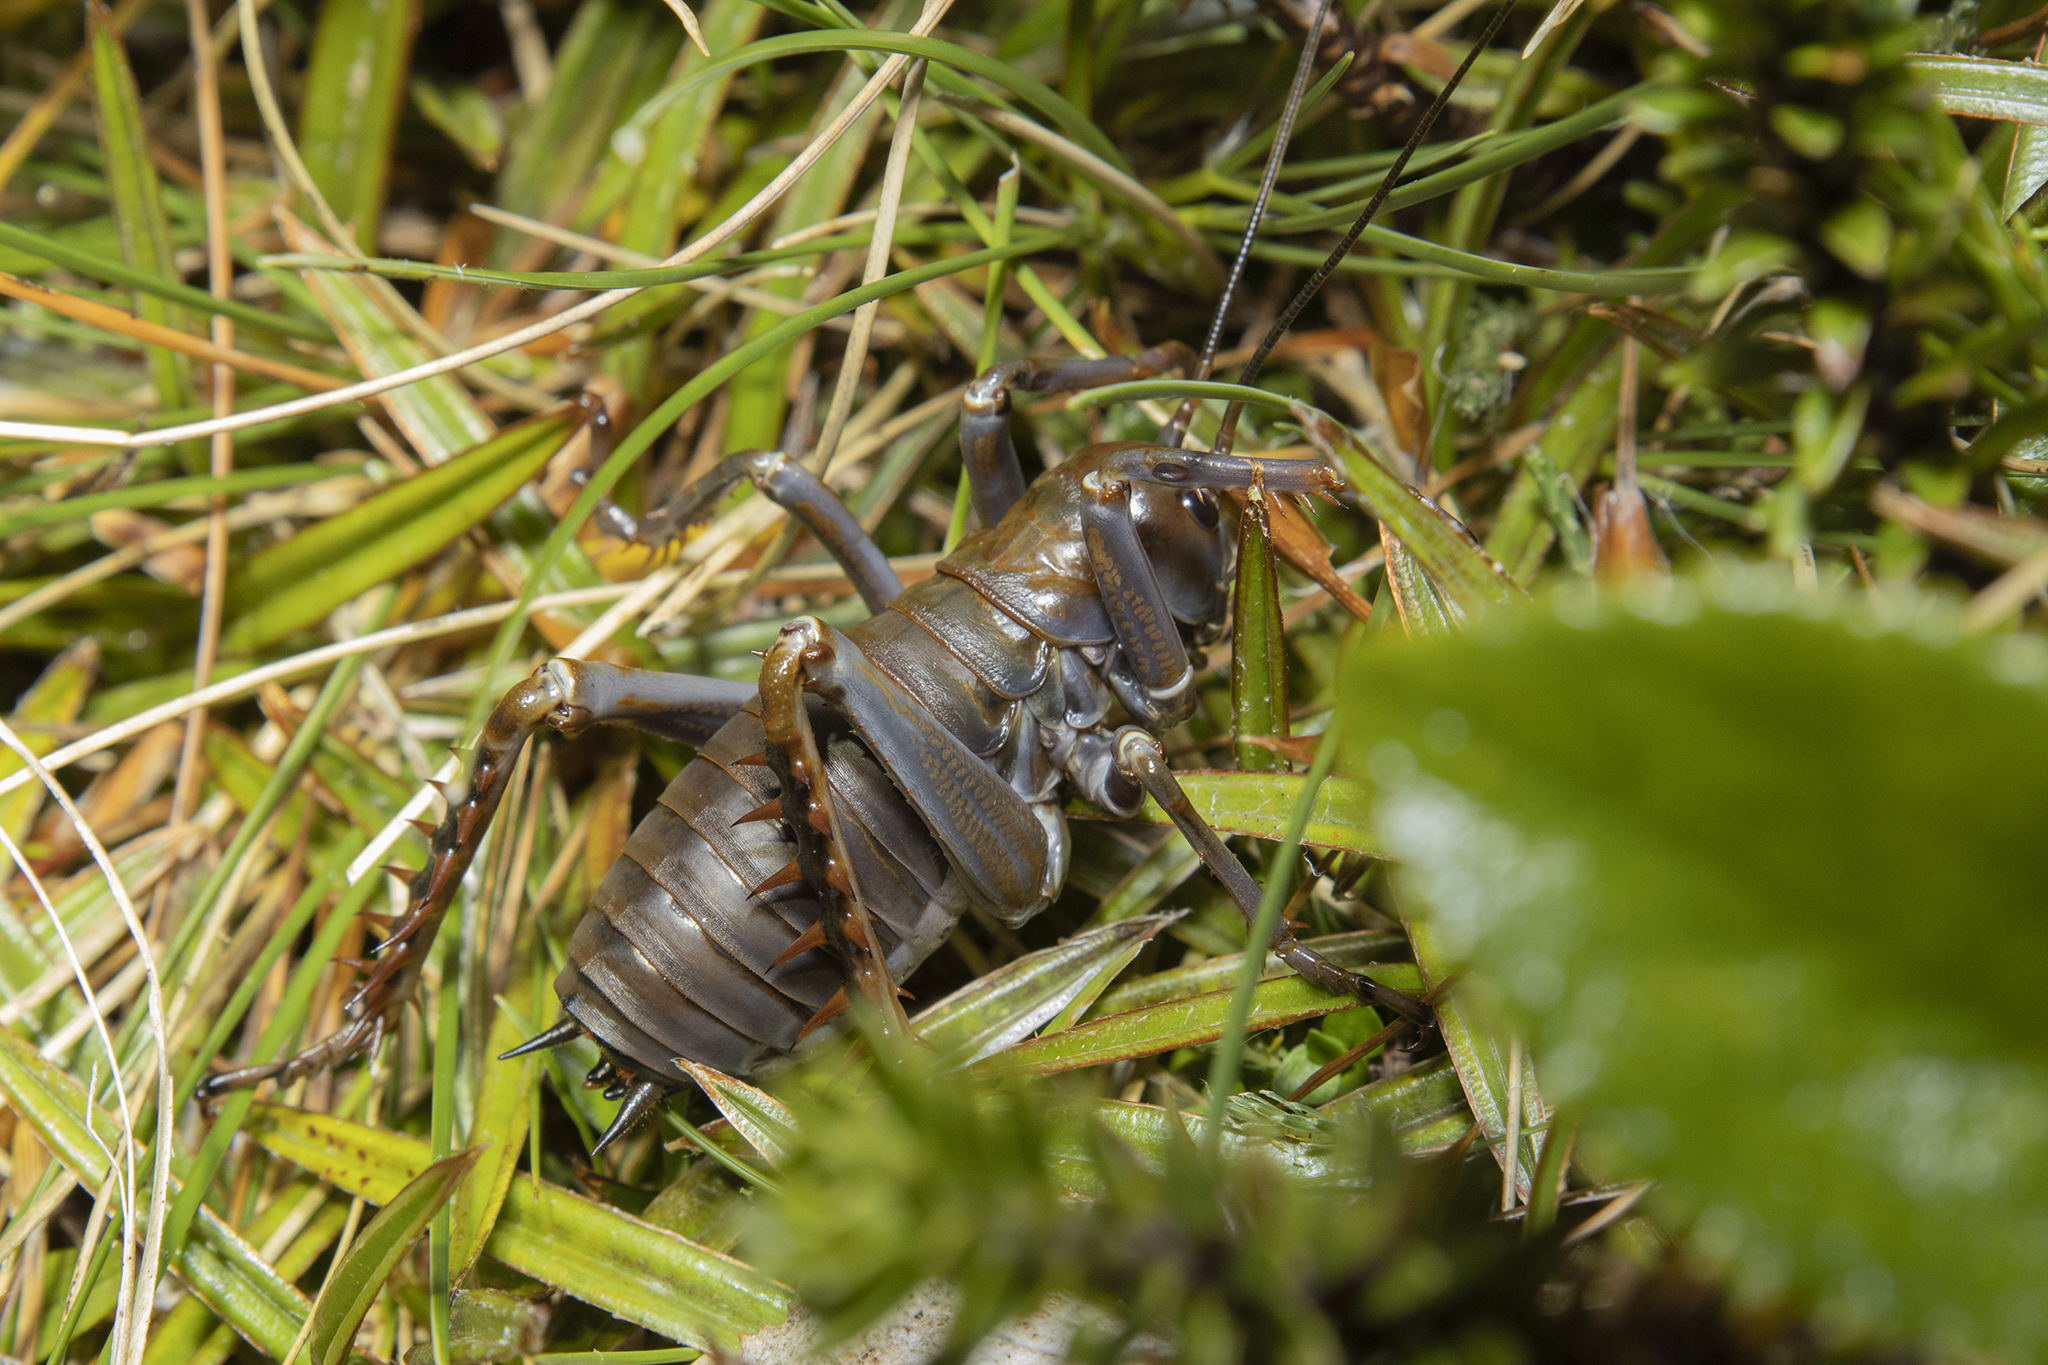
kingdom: Animalia
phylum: Arthropoda
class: Insecta
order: Orthoptera
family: Anostostomatidae
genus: Deinacrida
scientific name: Deinacrida talpa
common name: Giant mole weta
